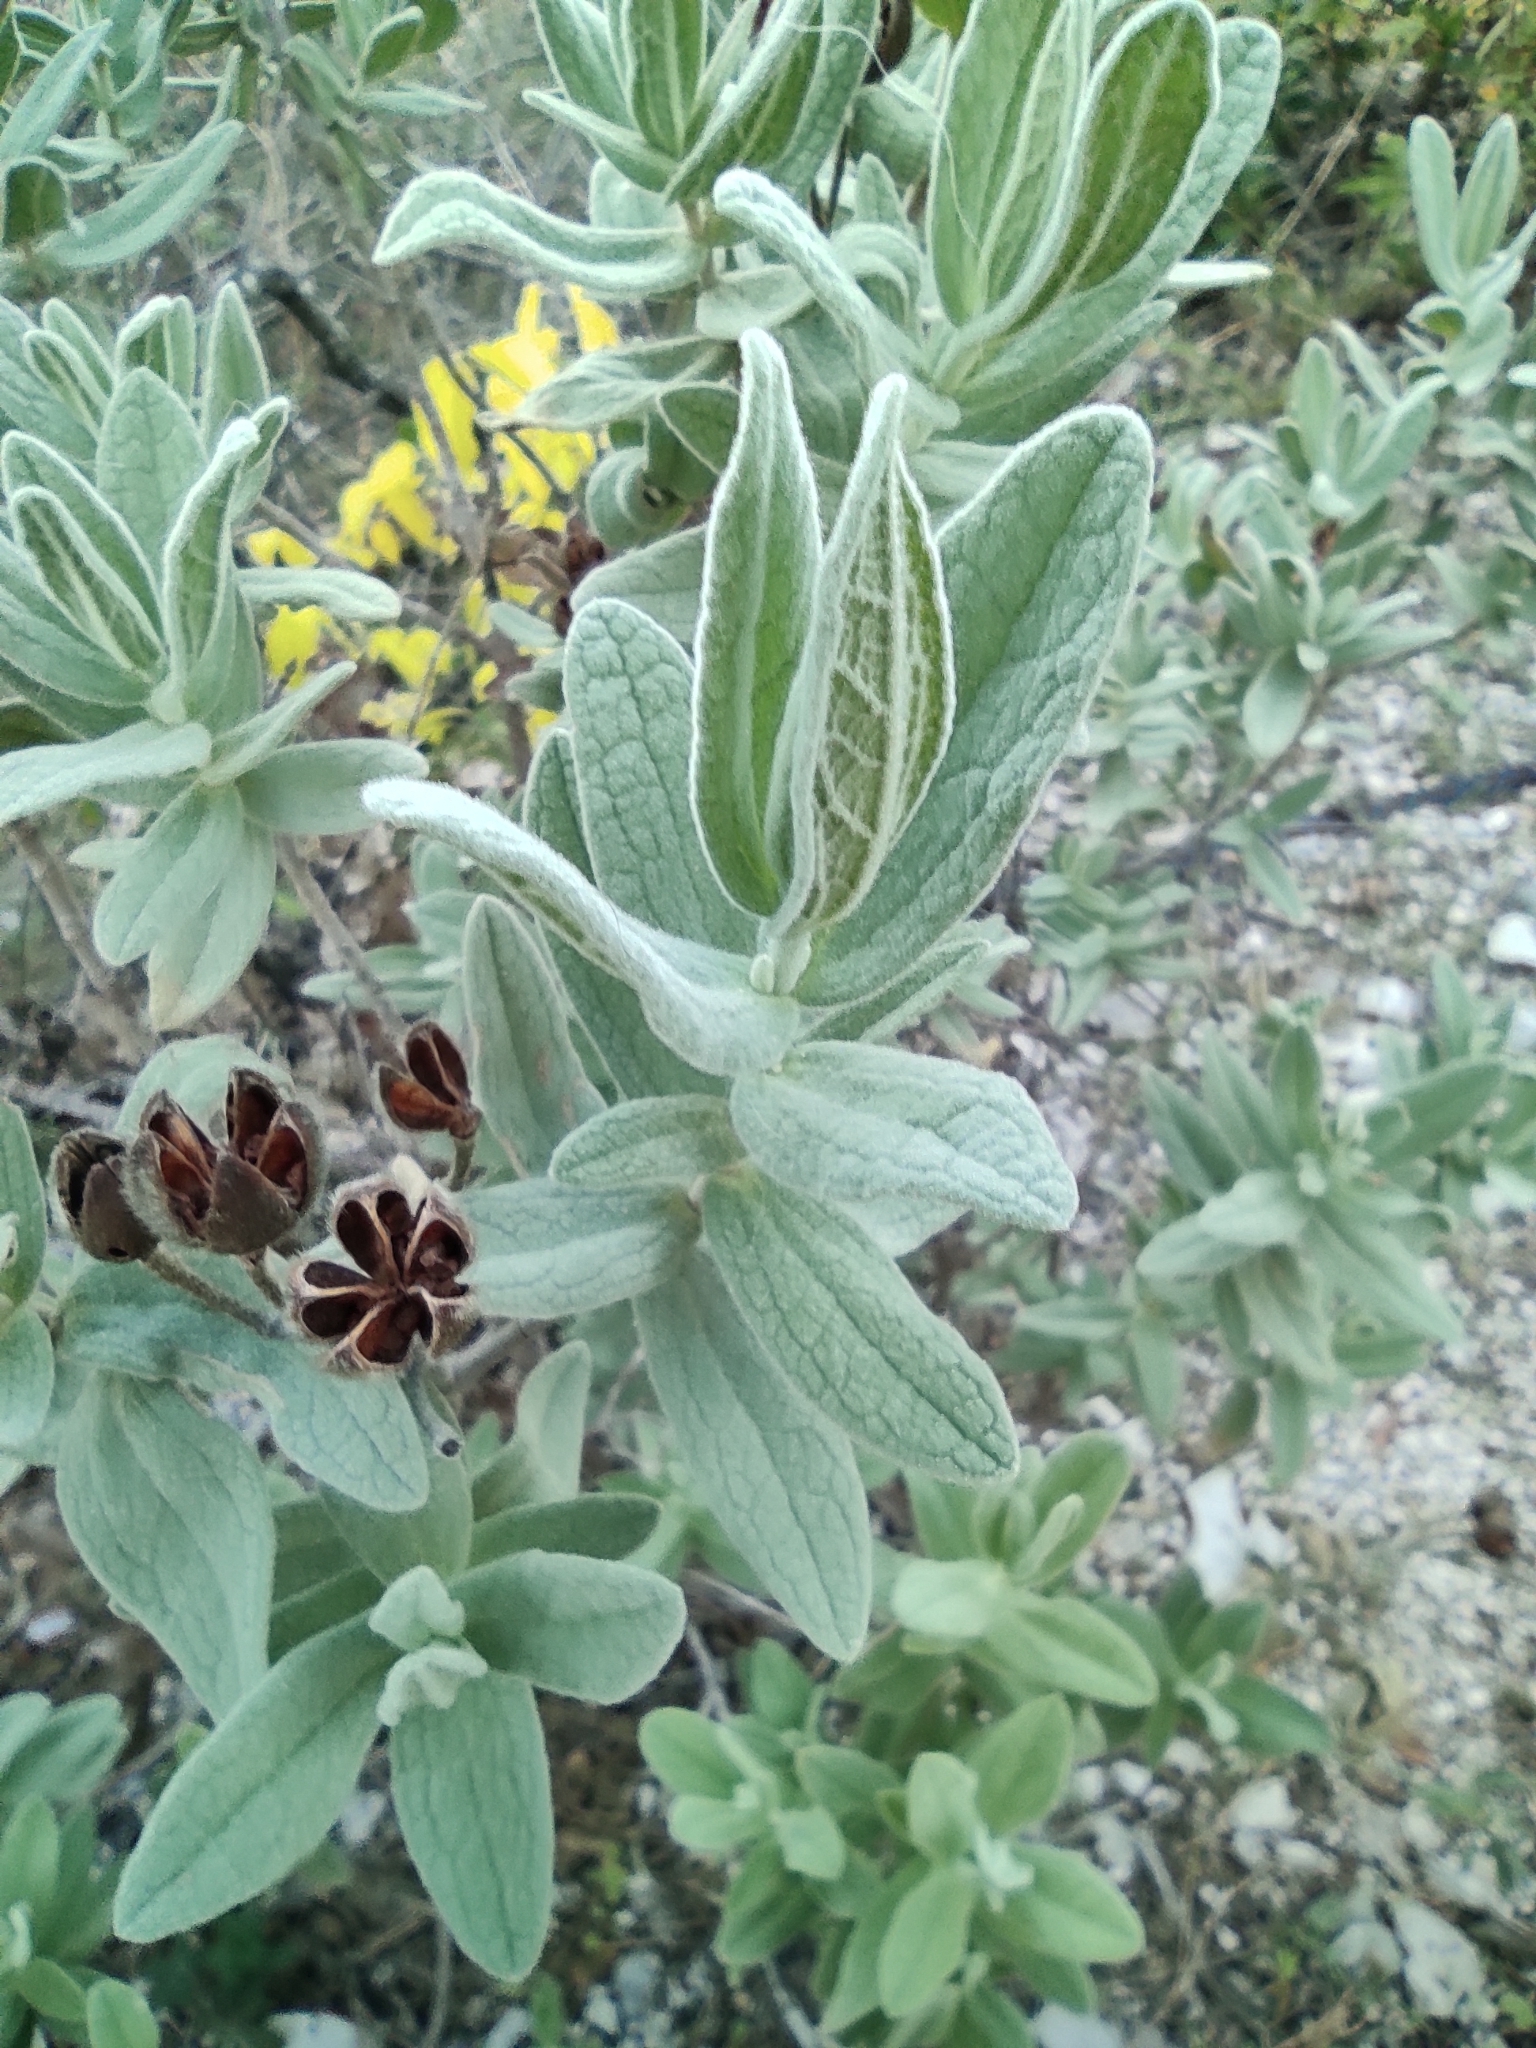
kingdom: Plantae
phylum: Tracheophyta
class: Magnoliopsida
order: Malvales
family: Cistaceae
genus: Cistus
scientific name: Cistus albidus
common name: White-leaf rock-rose
